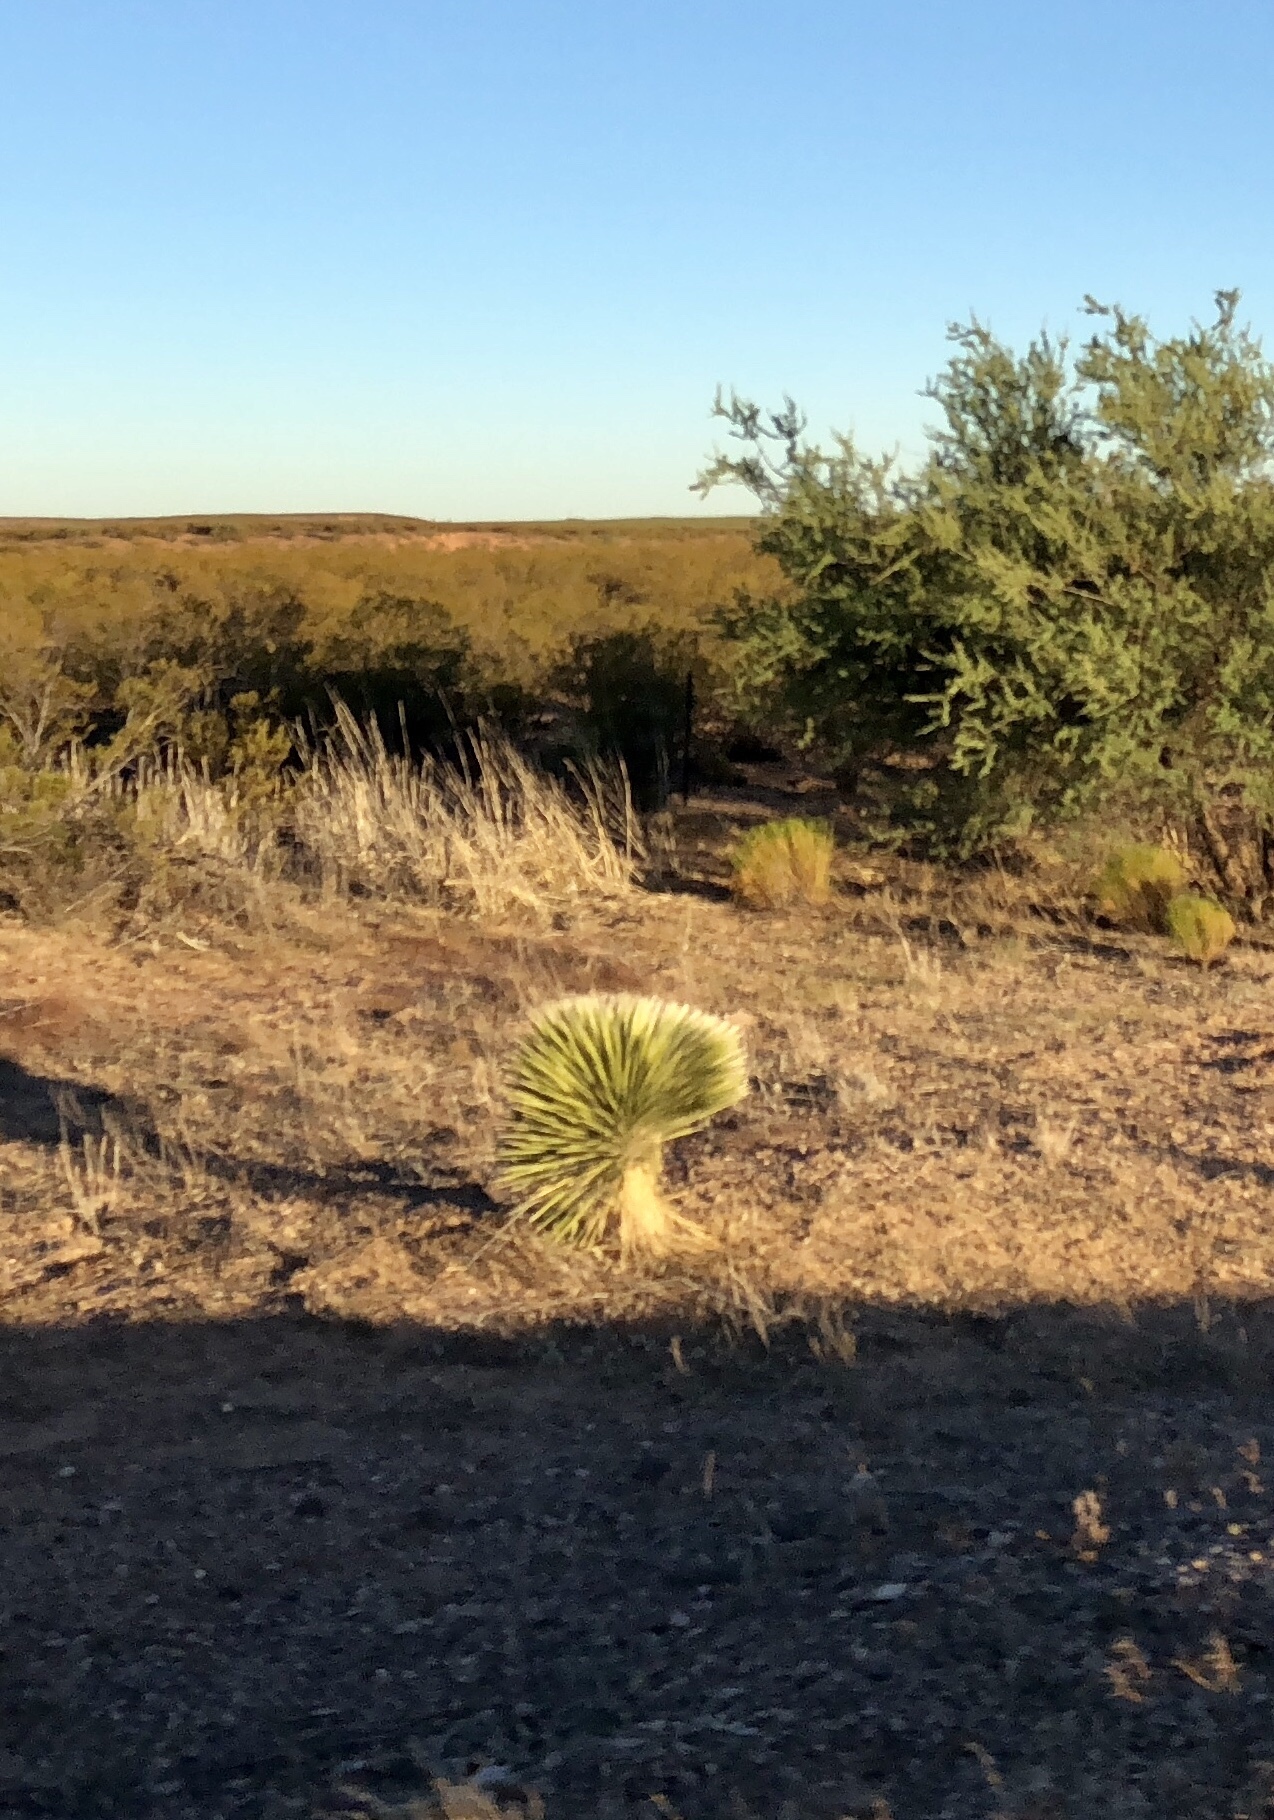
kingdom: Plantae
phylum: Tracheophyta
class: Liliopsida
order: Asparagales
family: Asparagaceae
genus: Yucca
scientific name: Yucca elata
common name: Palmella
